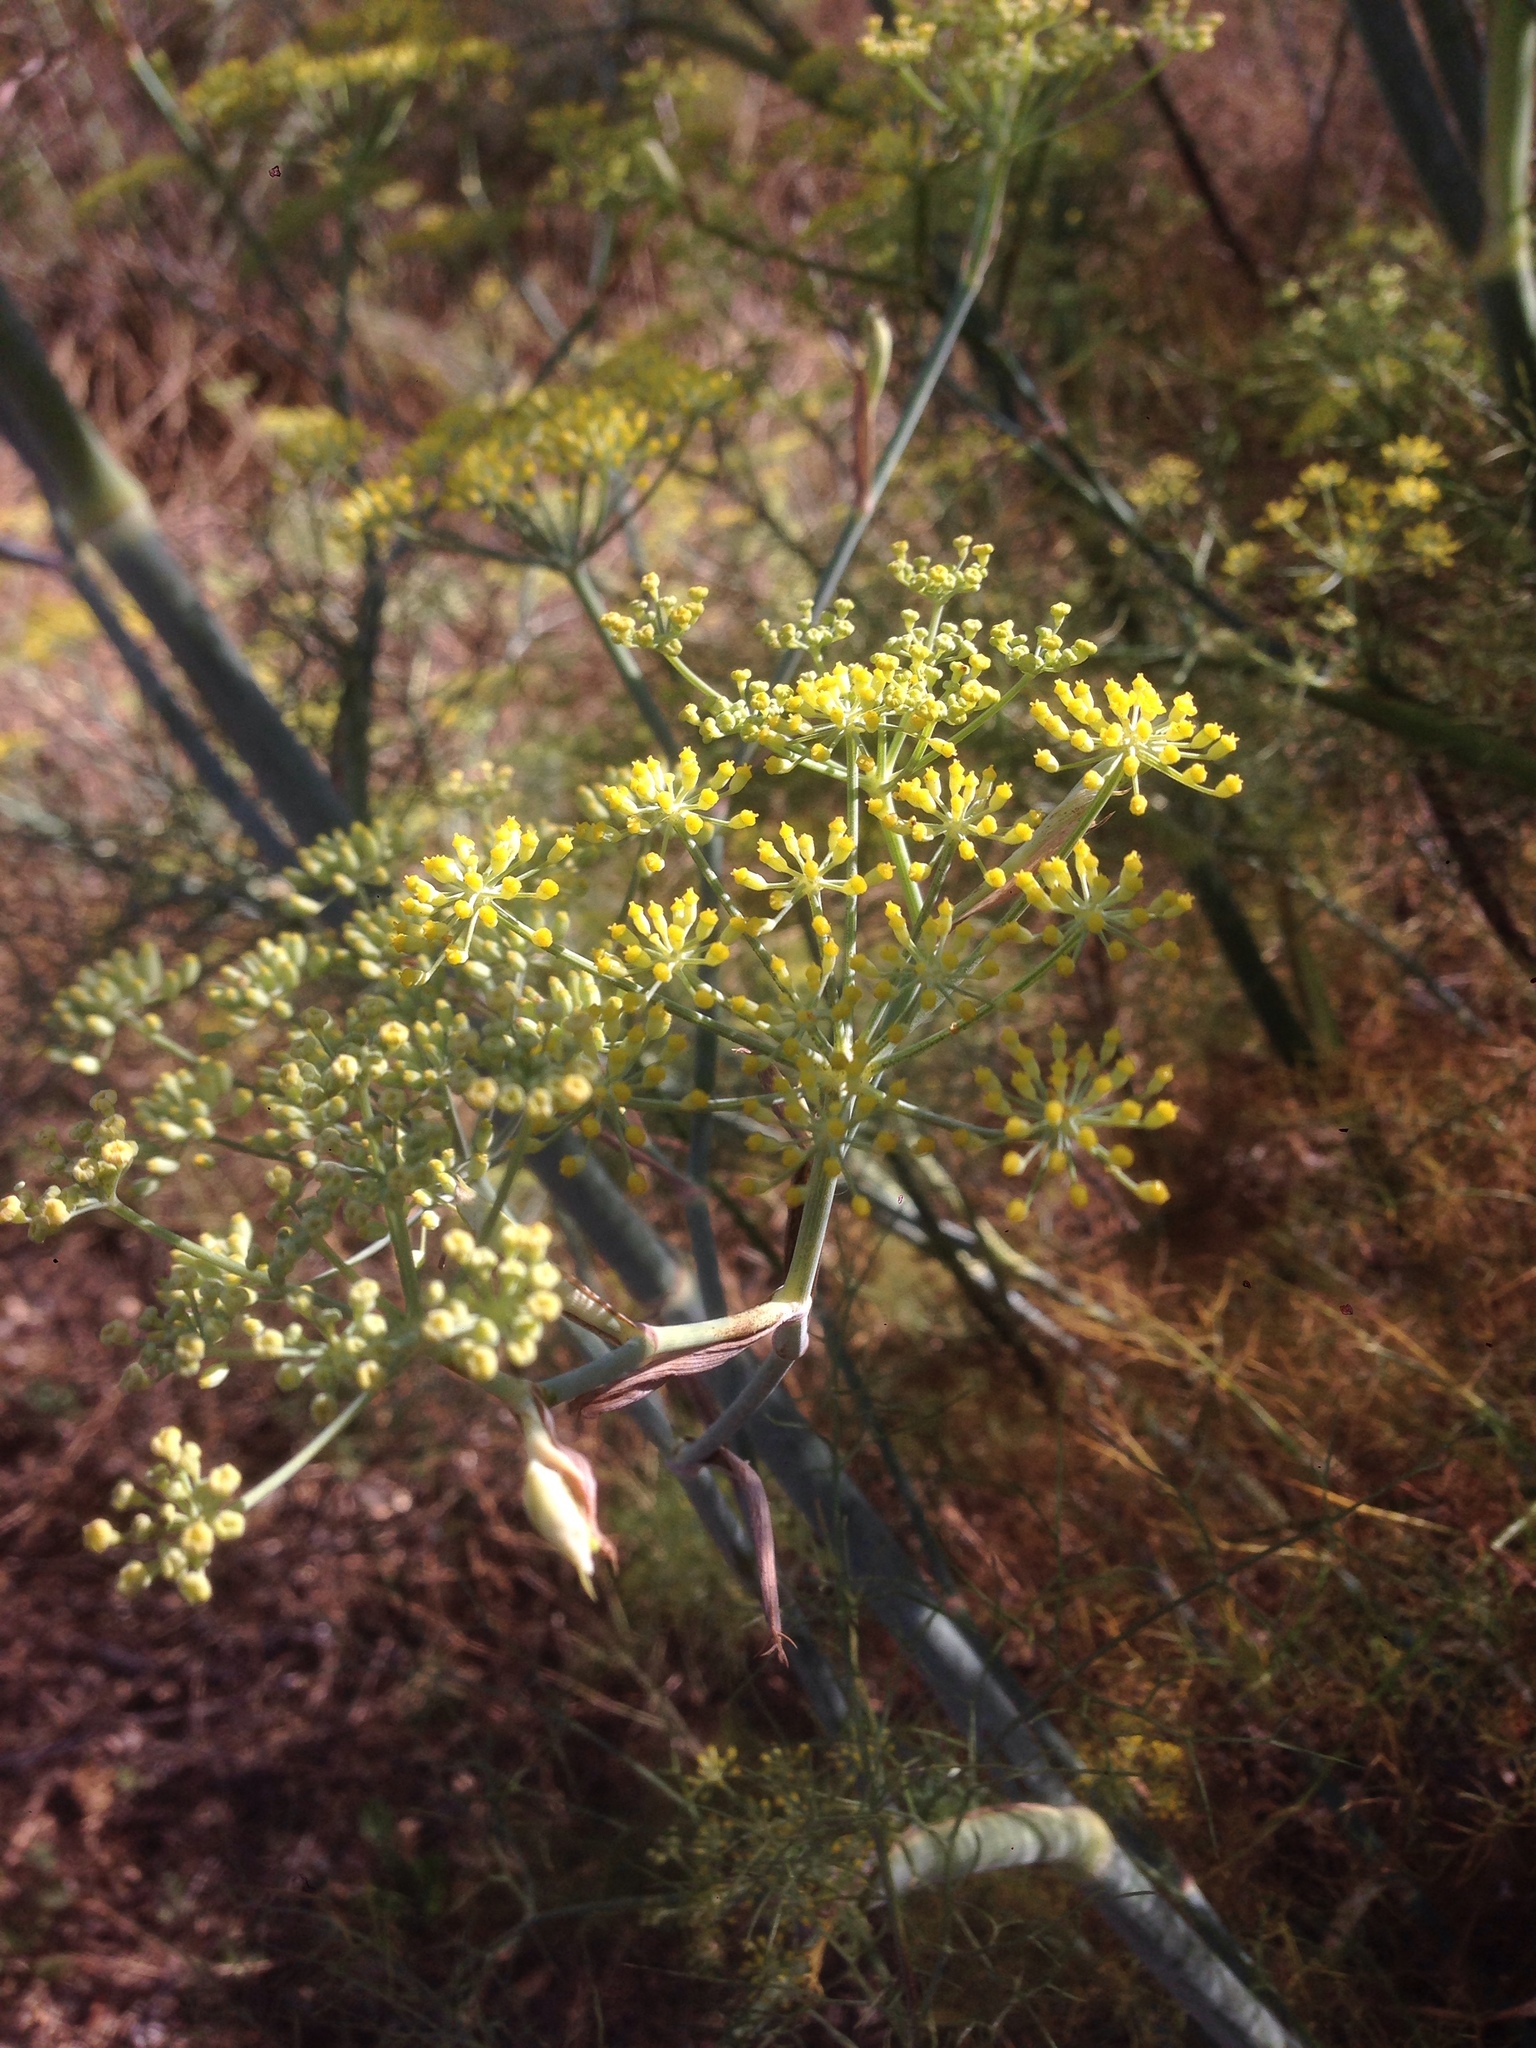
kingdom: Plantae
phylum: Tracheophyta
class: Magnoliopsida
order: Apiales
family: Apiaceae
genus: Foeniculum
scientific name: Foeniculum vulgare
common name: Fennel
